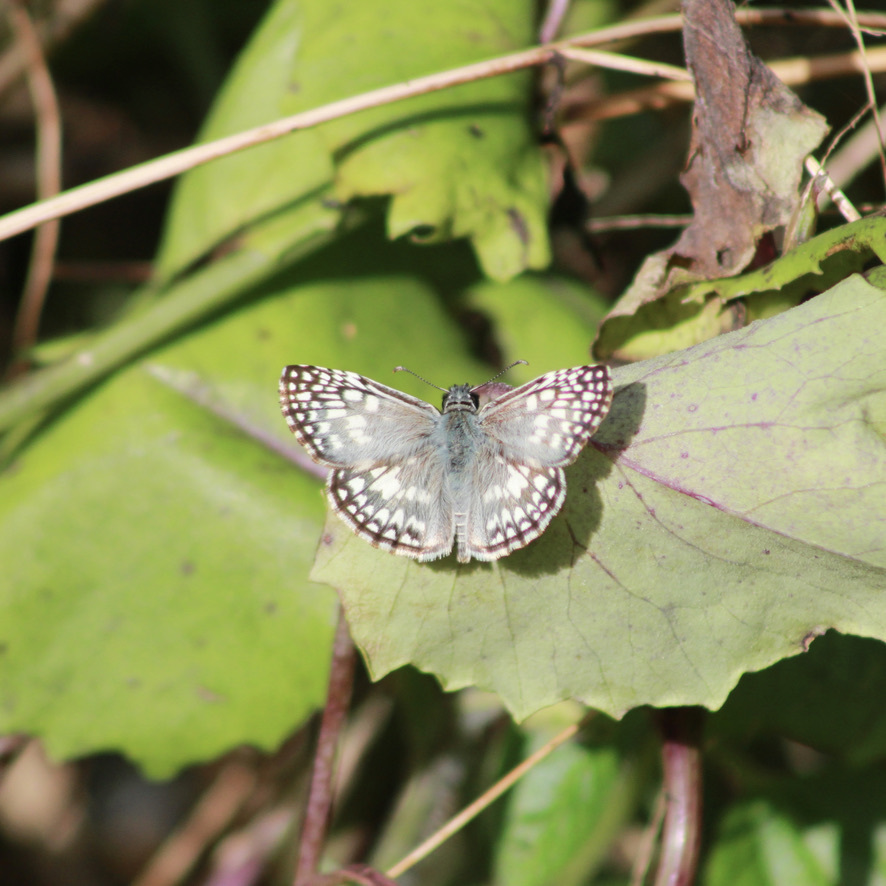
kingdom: Animalia
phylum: Arthropoda
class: Insecta
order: Lepidoptera
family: Hesperiidae
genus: Pyrgus
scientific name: Pyrgus oileus
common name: Tropical checkered-skipper
